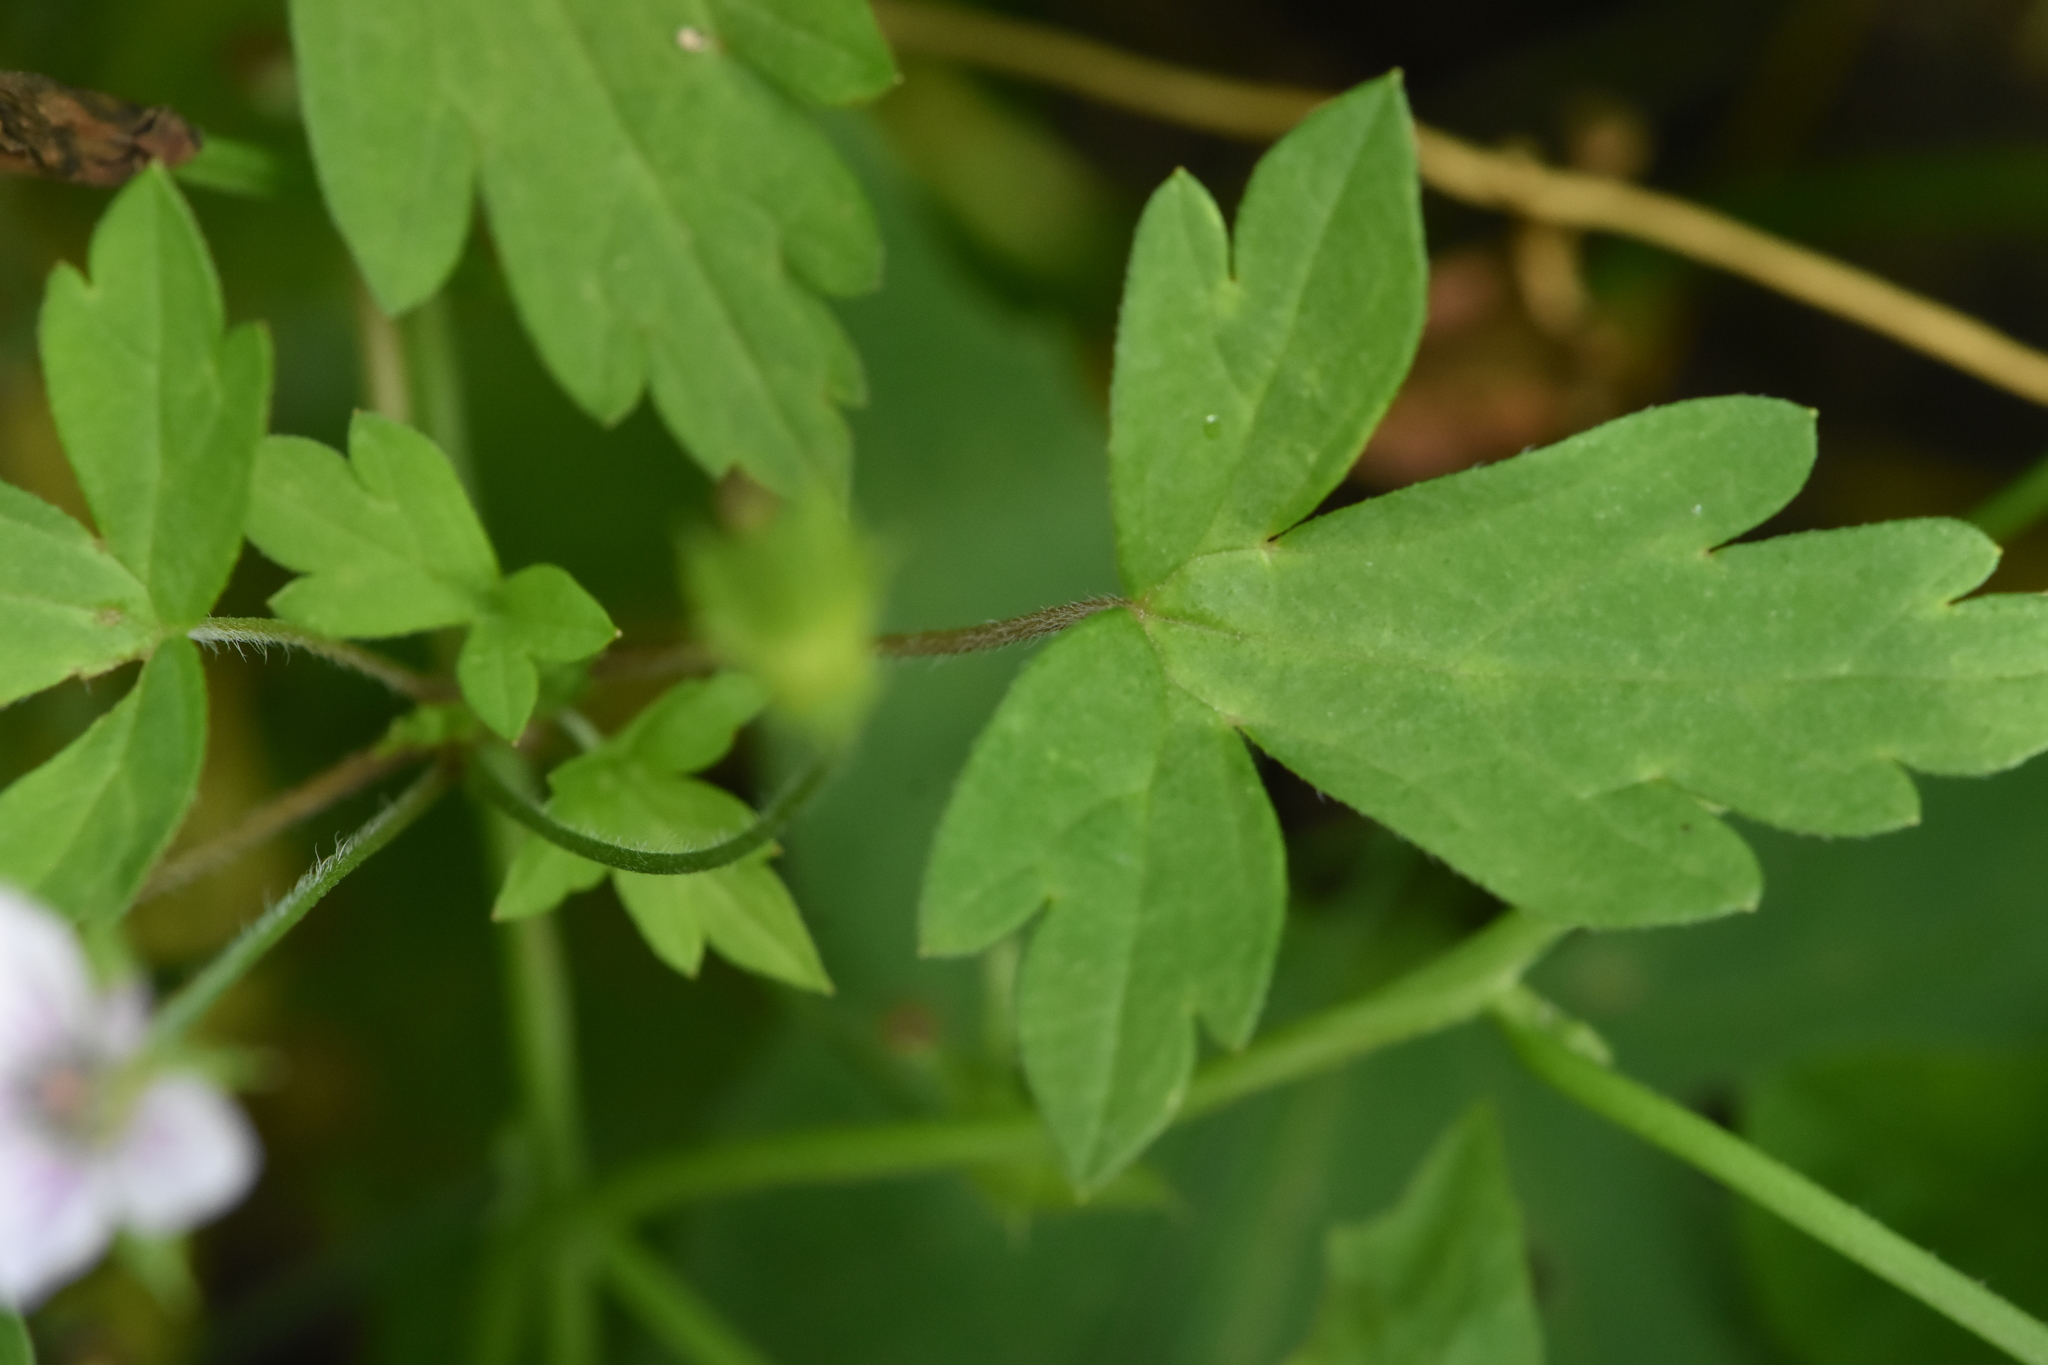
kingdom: Plantae
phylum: Tracheophyta
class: Magnoliopsida
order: Geraniales
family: Geraniaceae
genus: Geranium
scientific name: Geranium sibiricum
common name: Siberian crane's-bill
